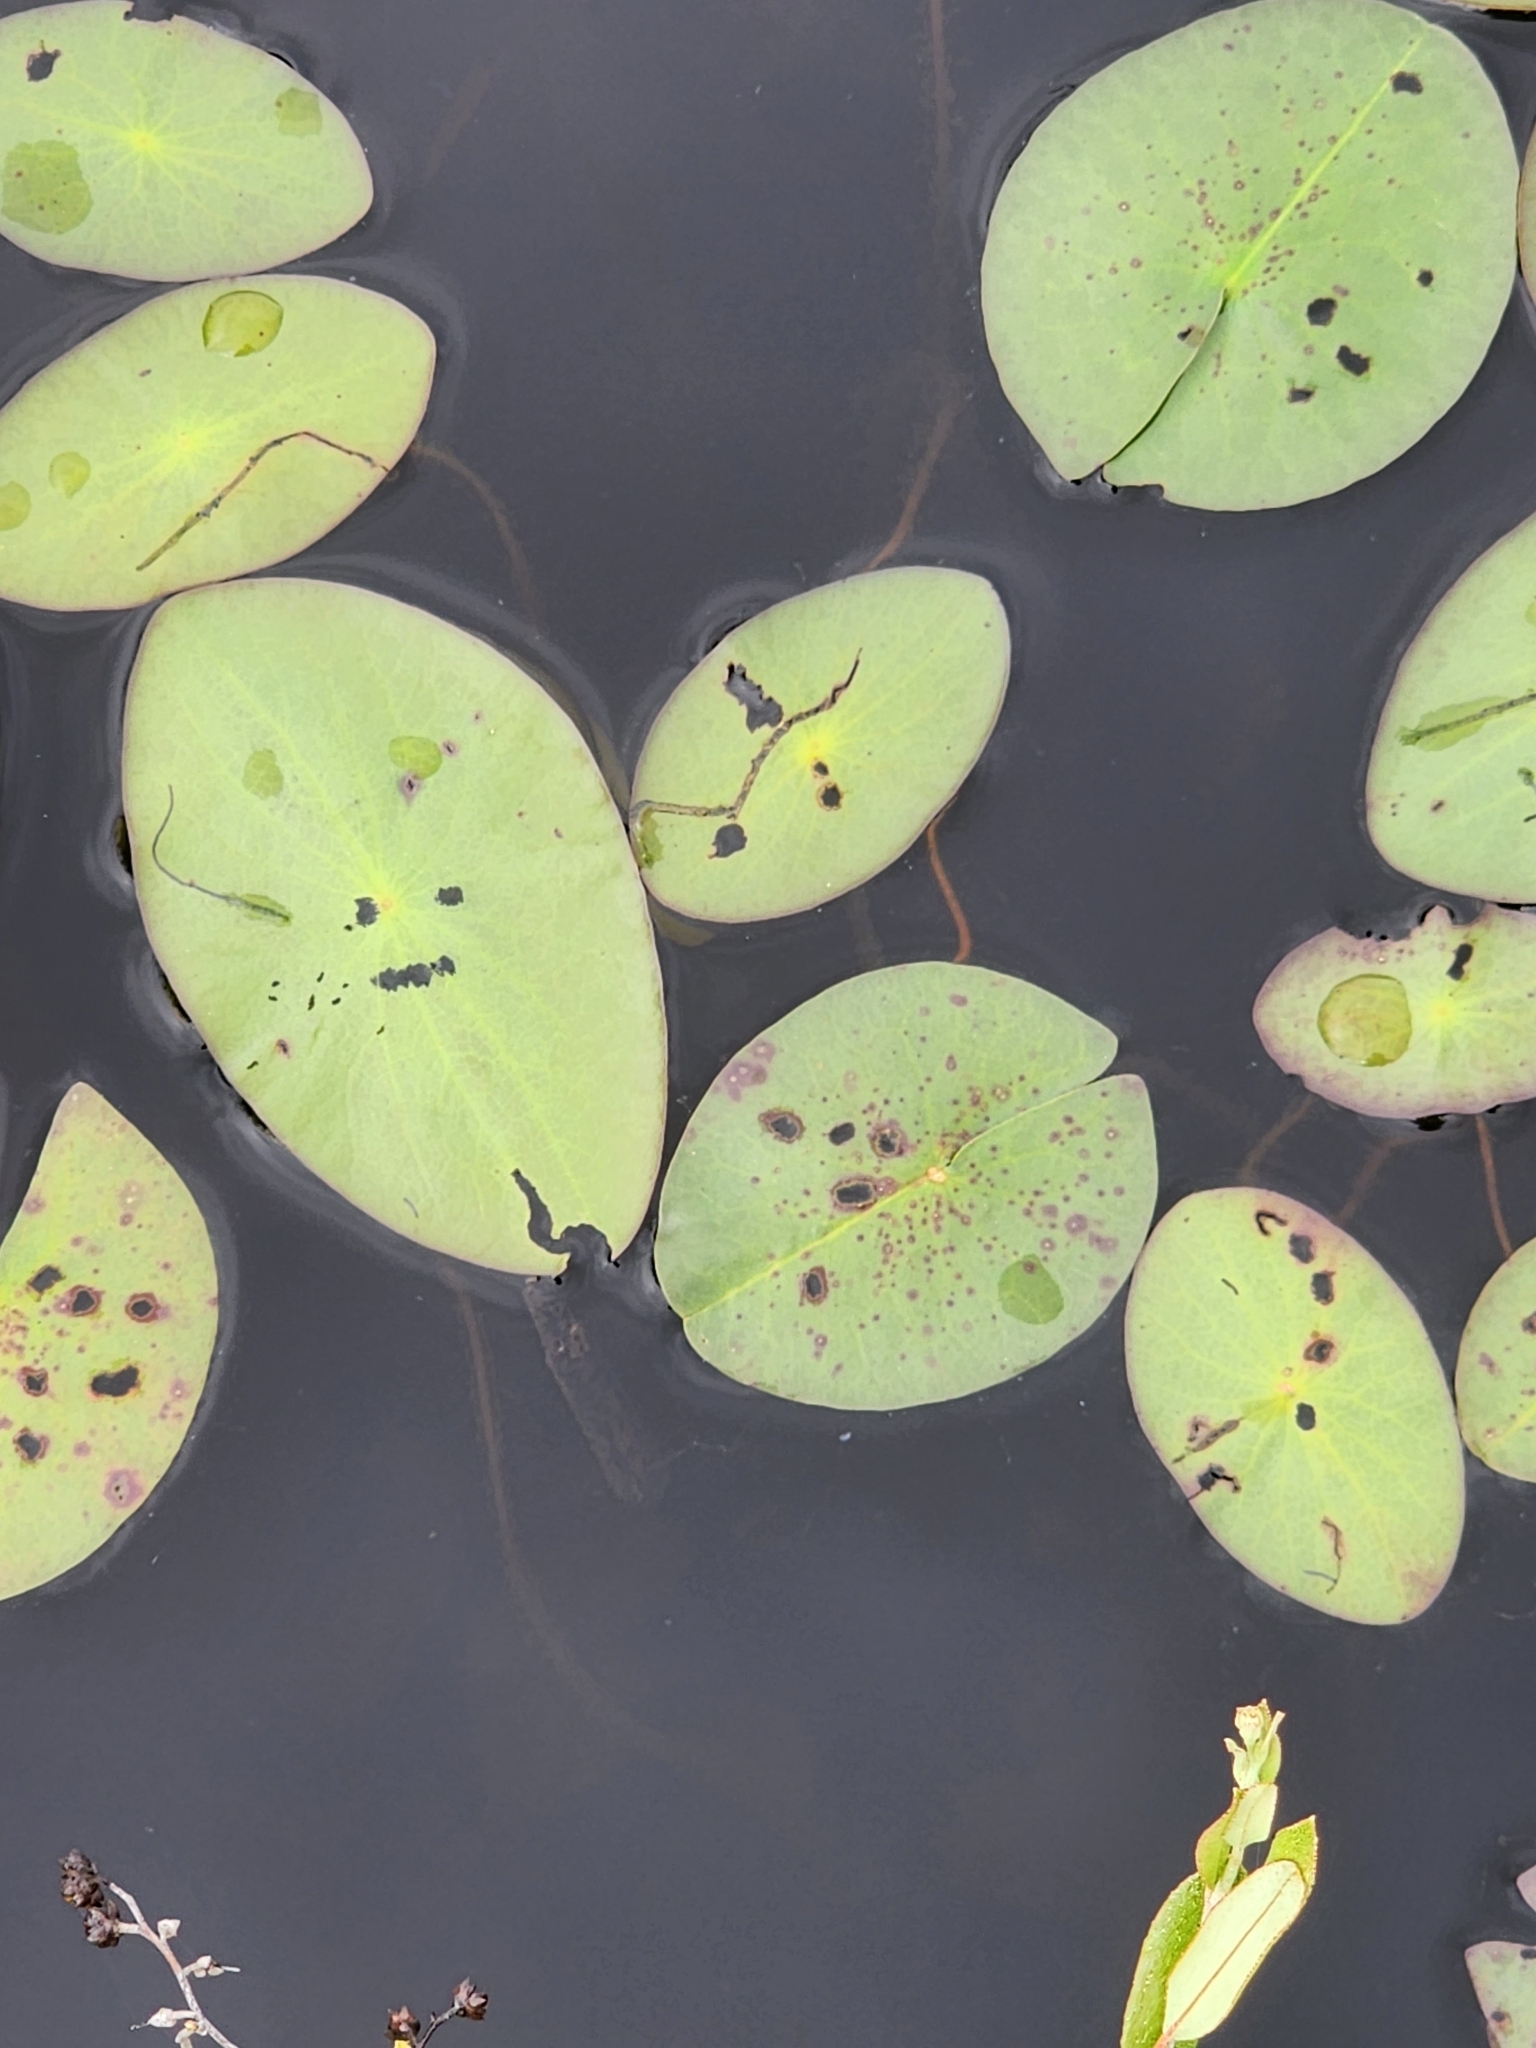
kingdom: Plantae
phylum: Tracheophyta
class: Magnoliopsida
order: Nymphaeales
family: Cabombaceae
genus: Brasenia
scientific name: Brasenia schreberi
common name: Water-shield
